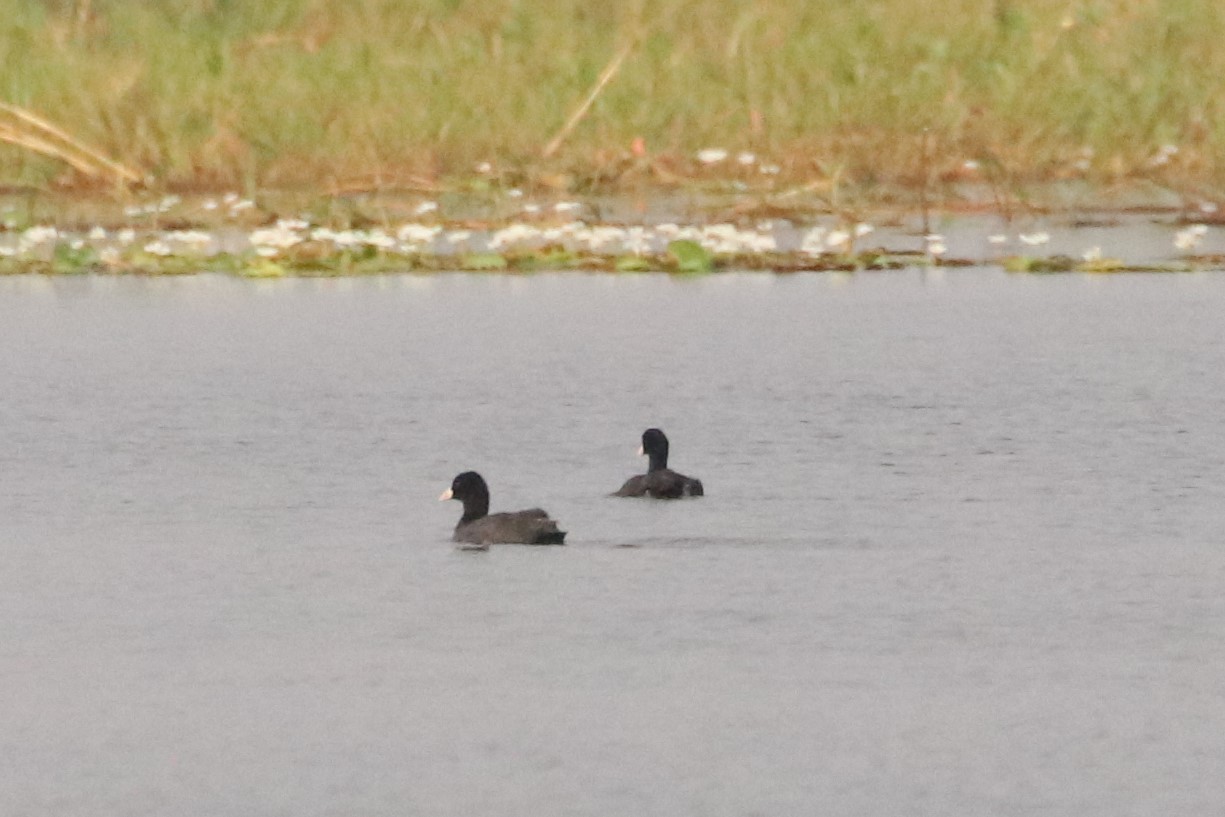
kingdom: Animalia
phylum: Chordata
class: Aves
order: Gruiformes
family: Rallidae
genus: Fulica
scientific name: Fulica atra
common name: Eurasian coot
